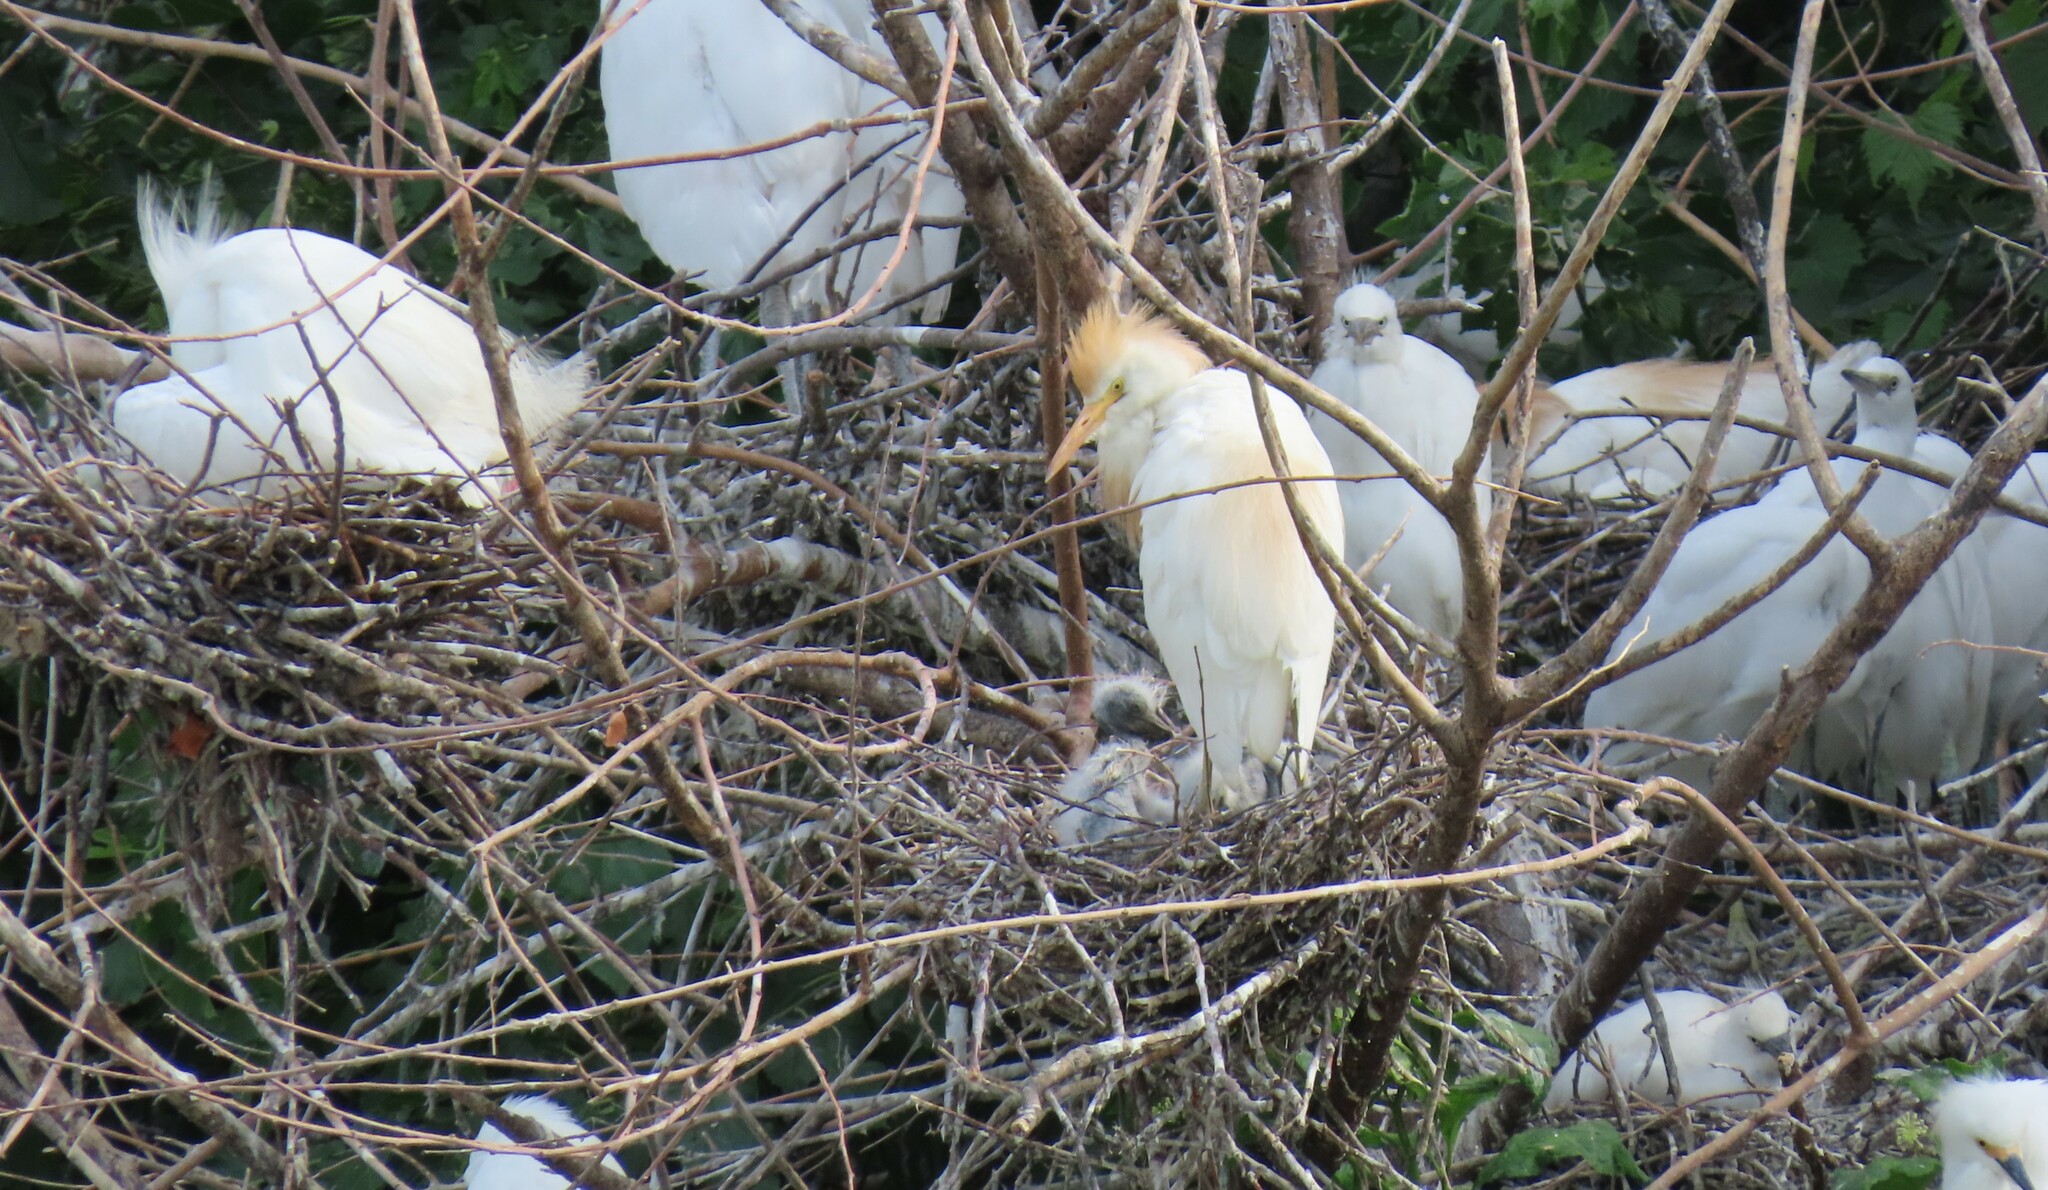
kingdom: Animalia
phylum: Chordata
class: Aves
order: Pelecaniformes
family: Ardeidae
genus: Bubulcus
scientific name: Bubulcus ibis
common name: Cattle egret
